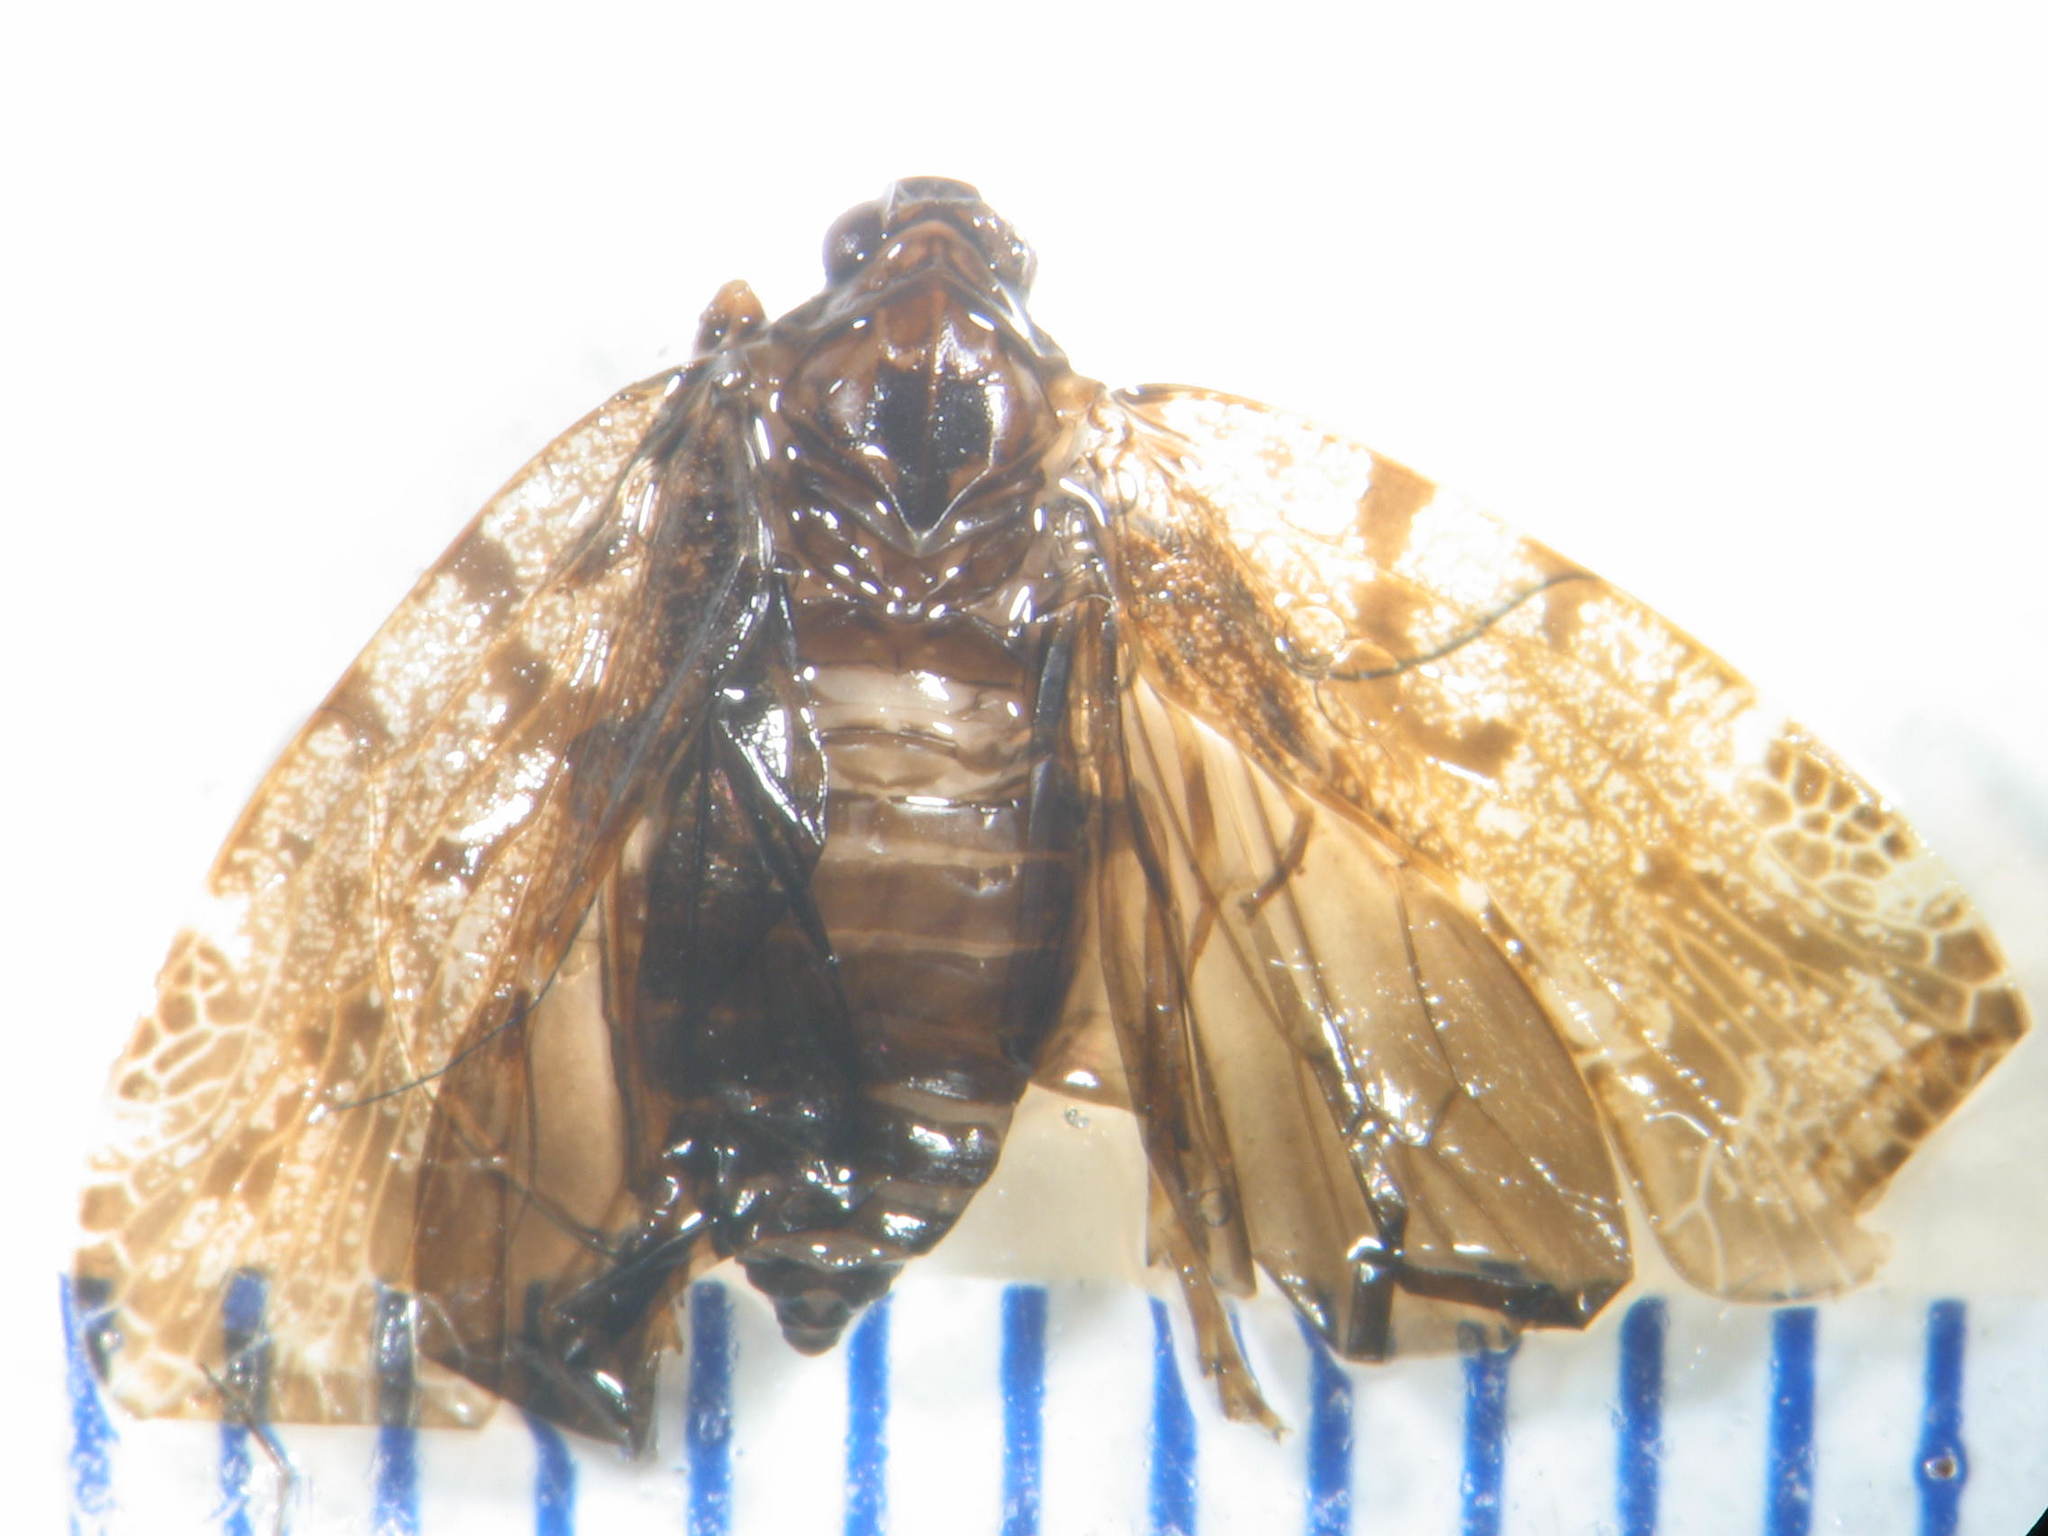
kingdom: Animalia
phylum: Arthropoda
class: Insecta
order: Hemiptera
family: Achilidae
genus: Parabunda
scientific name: Parabunda tasmanica
